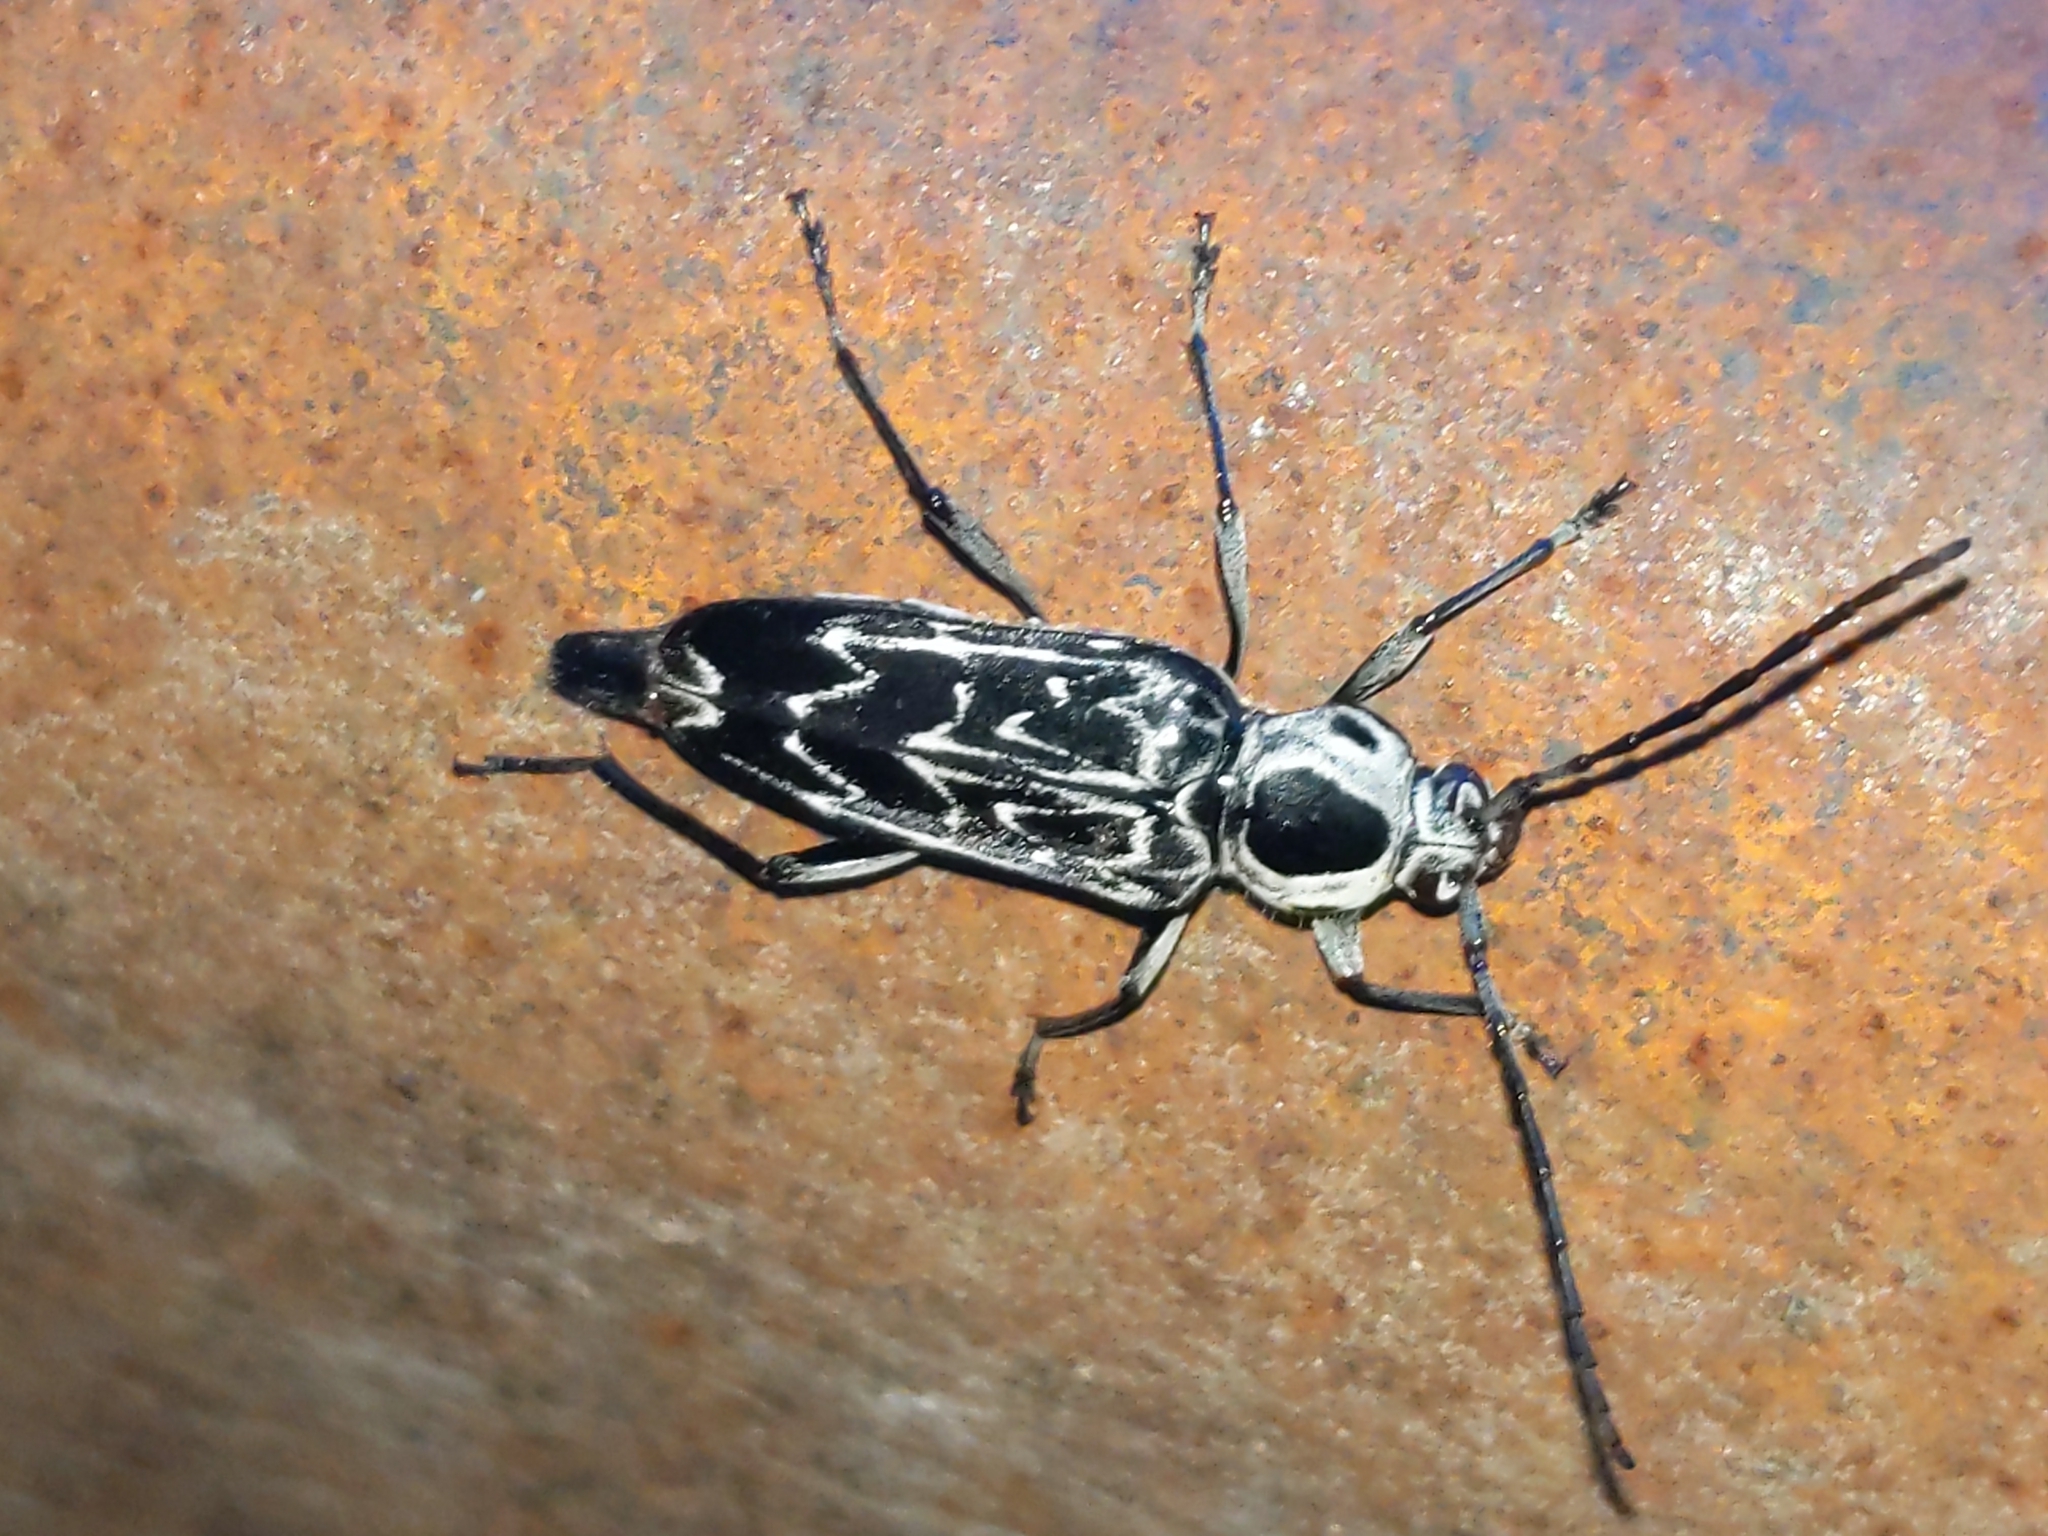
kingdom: Animalia
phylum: Arthropoda
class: Insecta
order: Coleoptera
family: Cerambycidae
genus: Sarosesthes
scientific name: Sarosesthes fulminans
